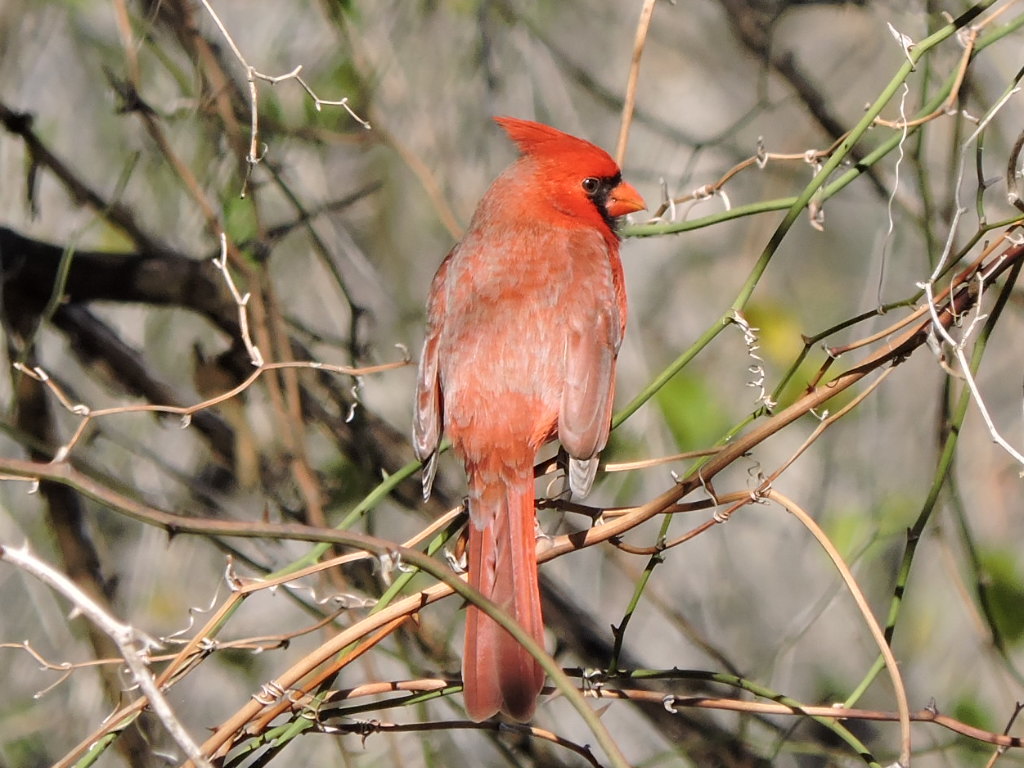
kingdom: Animalia
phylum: Chordata
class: Aves
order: Passeriformes
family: Cardinalidae
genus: Cardinalis
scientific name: Cardinalis cardinalis
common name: Northern cardinal
